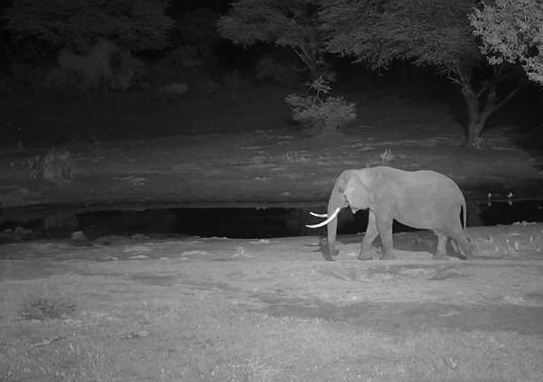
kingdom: Animalia
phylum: Chordata
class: Mammalia
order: Proboscidea
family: Elephantidae
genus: Loxodonta
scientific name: Loxodonta africana
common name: African elephant
